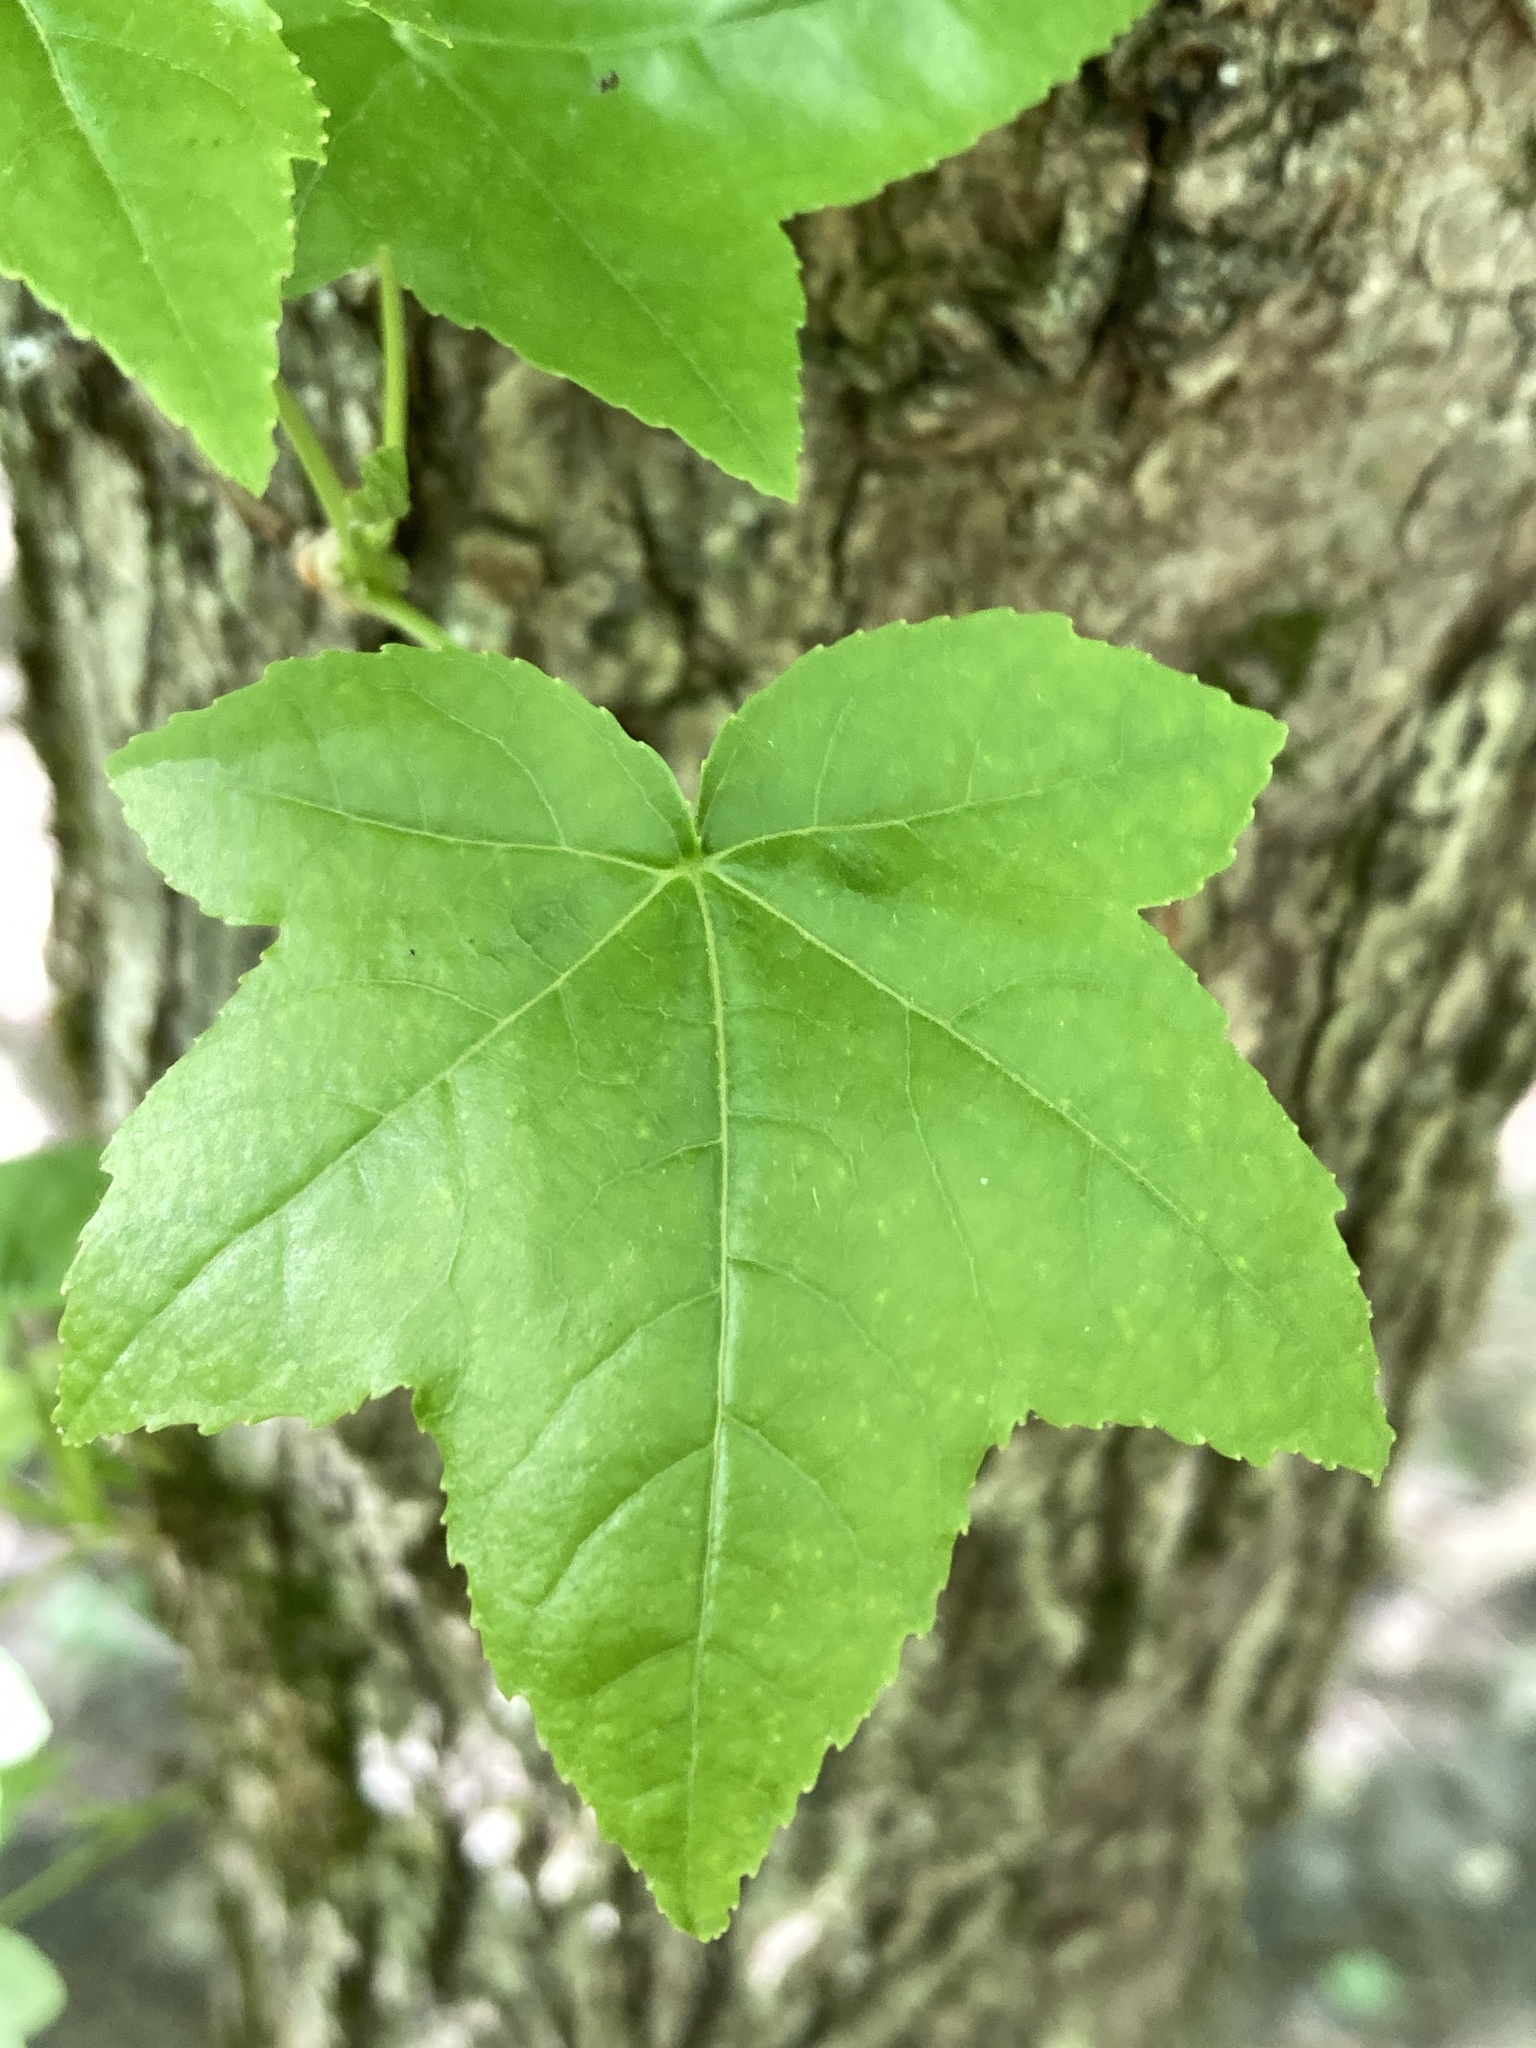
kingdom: Plantae
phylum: Tracheophyta
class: Magnoliopsida
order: Saxifragales
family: Altingiaceae
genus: Liquidambar
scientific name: Liquidambar styraciflua
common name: Sweet gum
